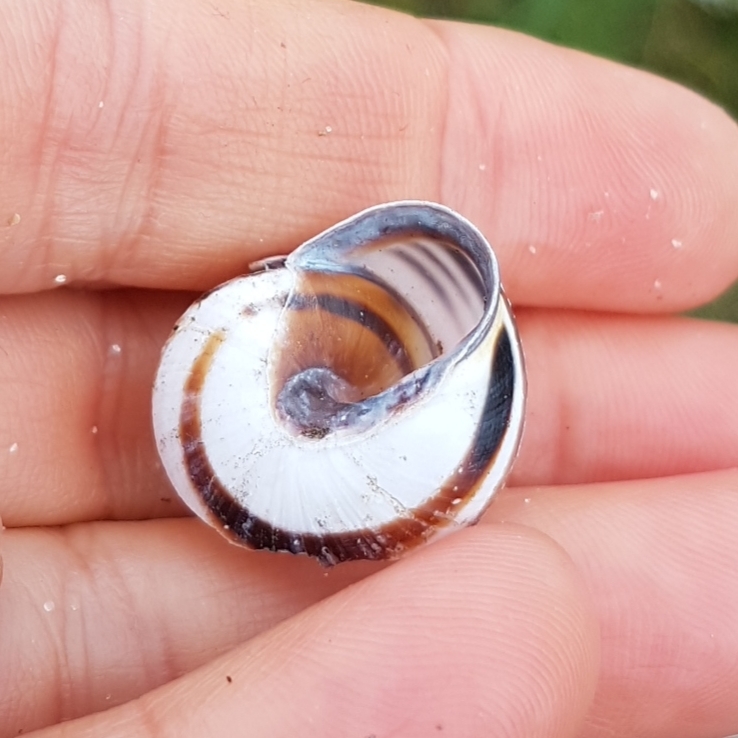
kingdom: Animalia
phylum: Mollusca
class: Gastropoda
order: Stylommatophora
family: Helicidae
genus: Cepaea
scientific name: Cepaea nemoralis
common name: Grovesnail
